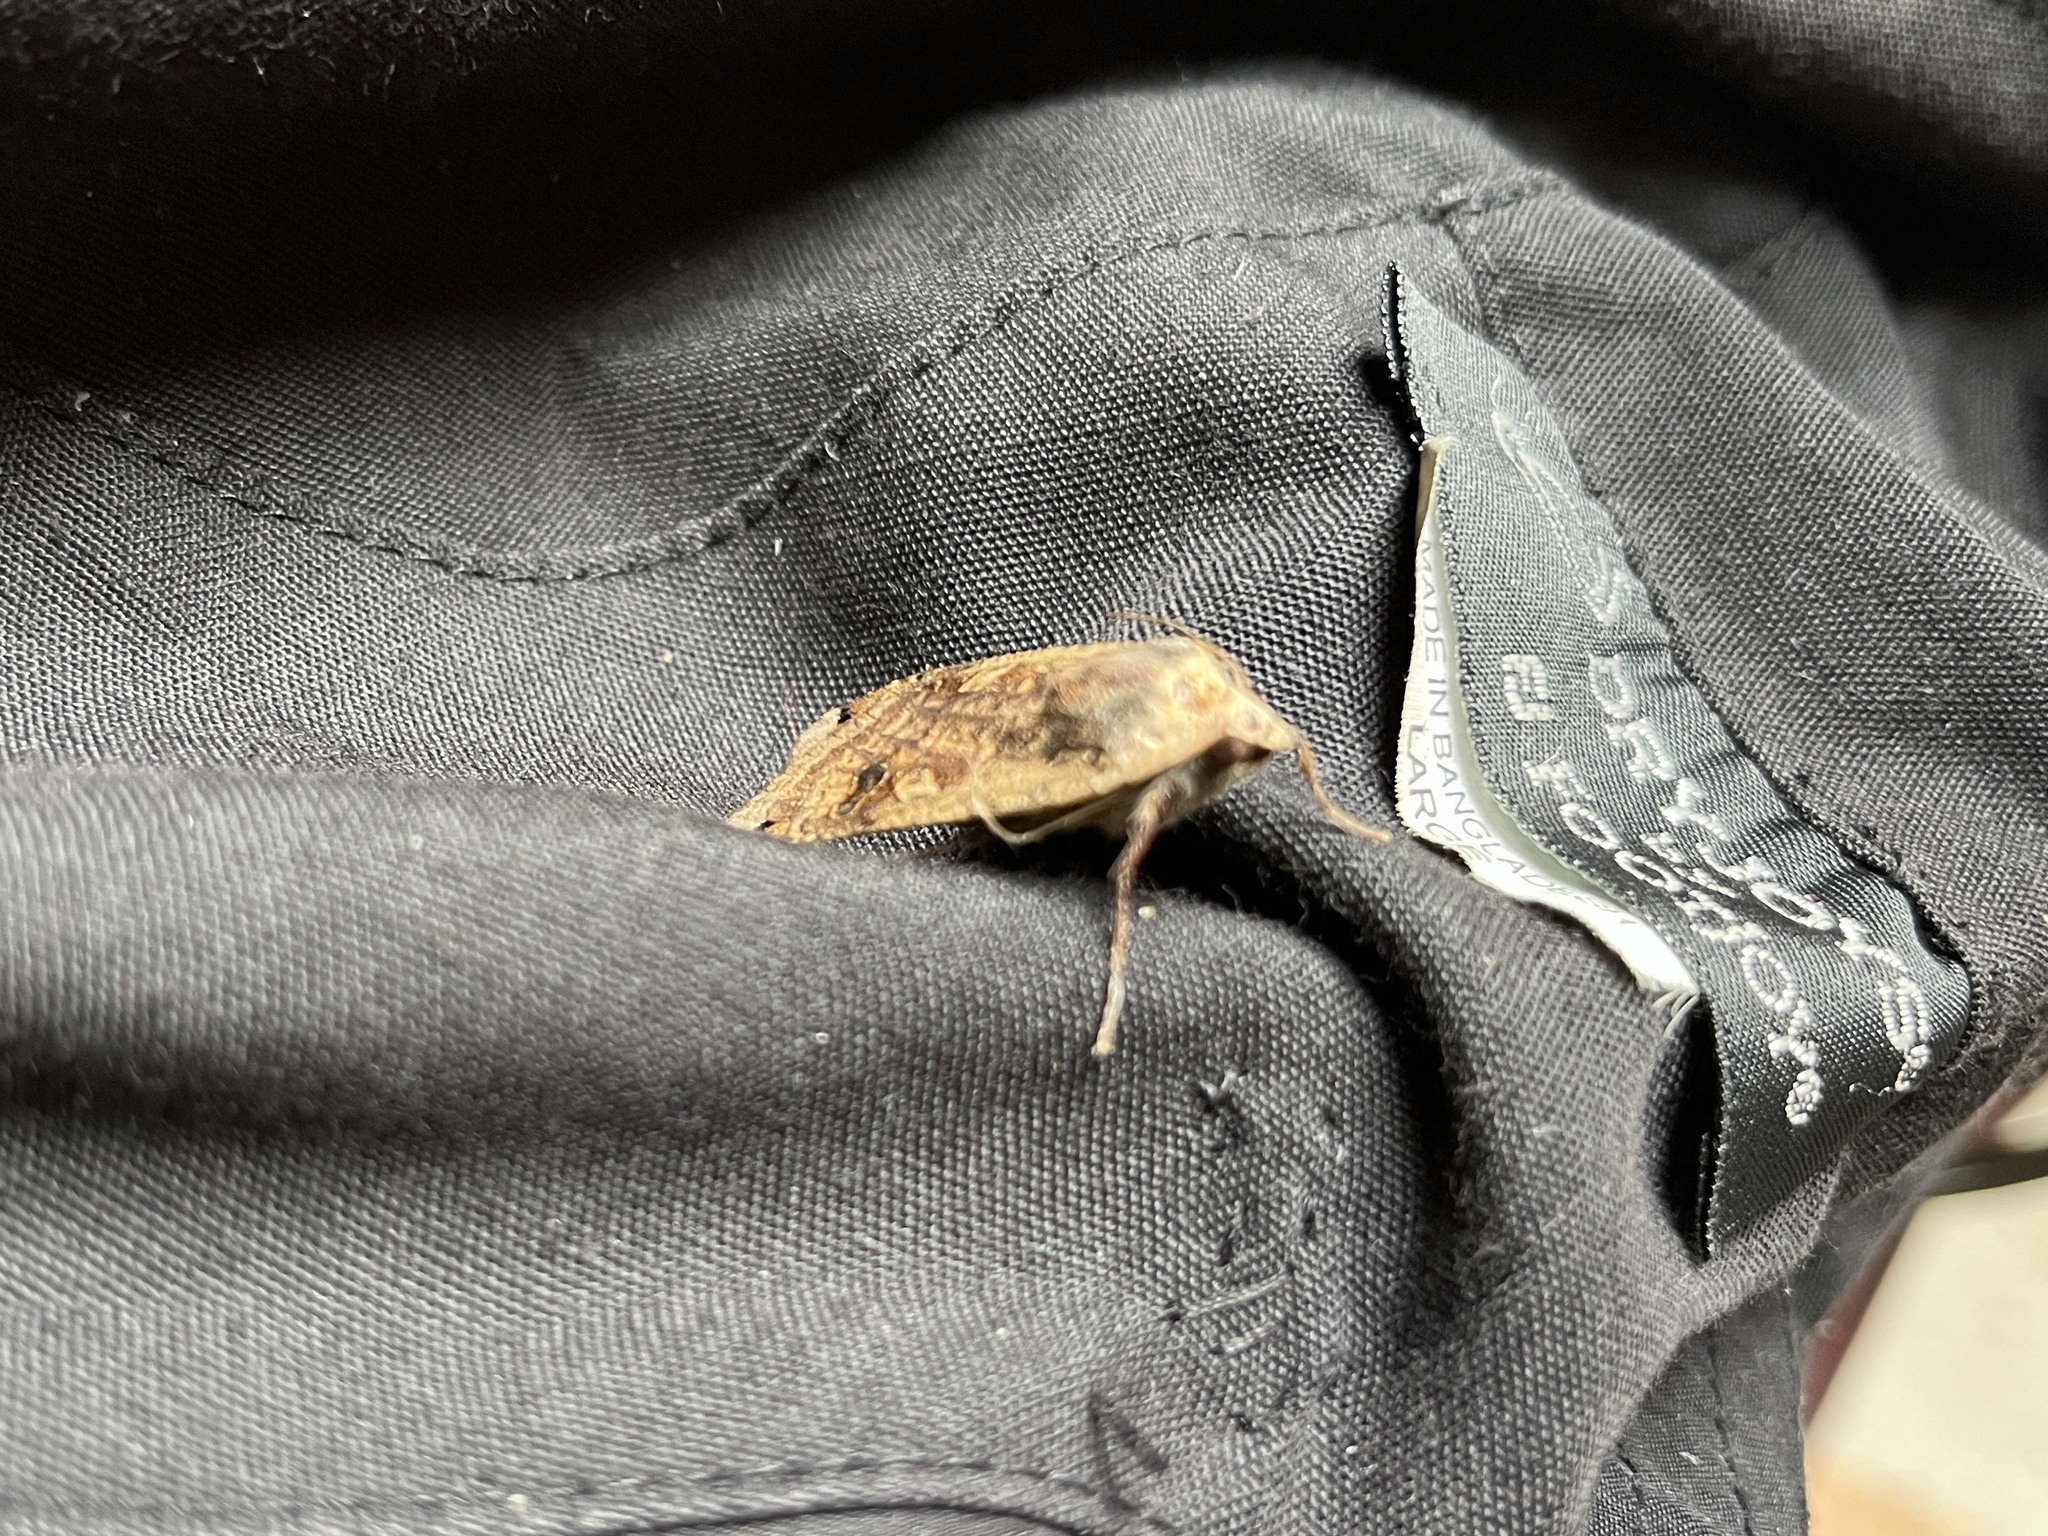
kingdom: Animalia
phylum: Arthropoda
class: Insecta
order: Lepidoptera
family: Noctuidae
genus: Noctua
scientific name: Noctua pronuba
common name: Large yellow underwing
